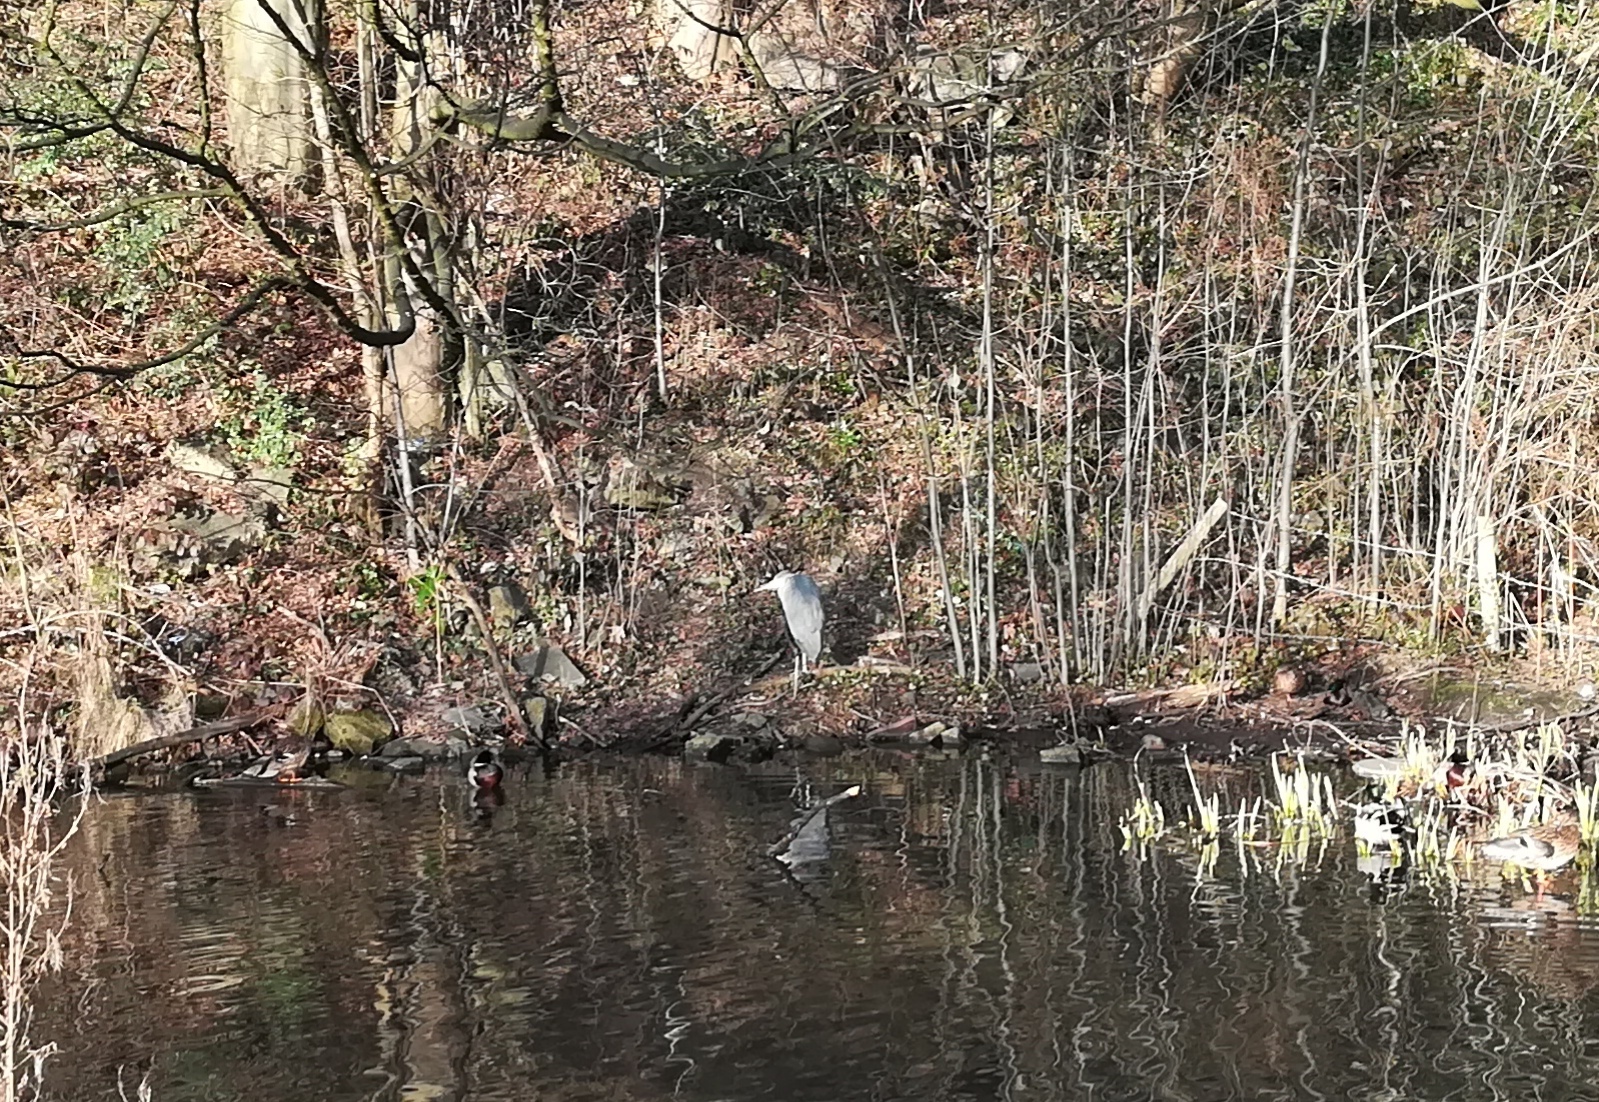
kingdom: Animalia
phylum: Chordata
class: Aves
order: Pelecaniformes
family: Ardeidae
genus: Ardea
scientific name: Ardea cinerea
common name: Grey heron
